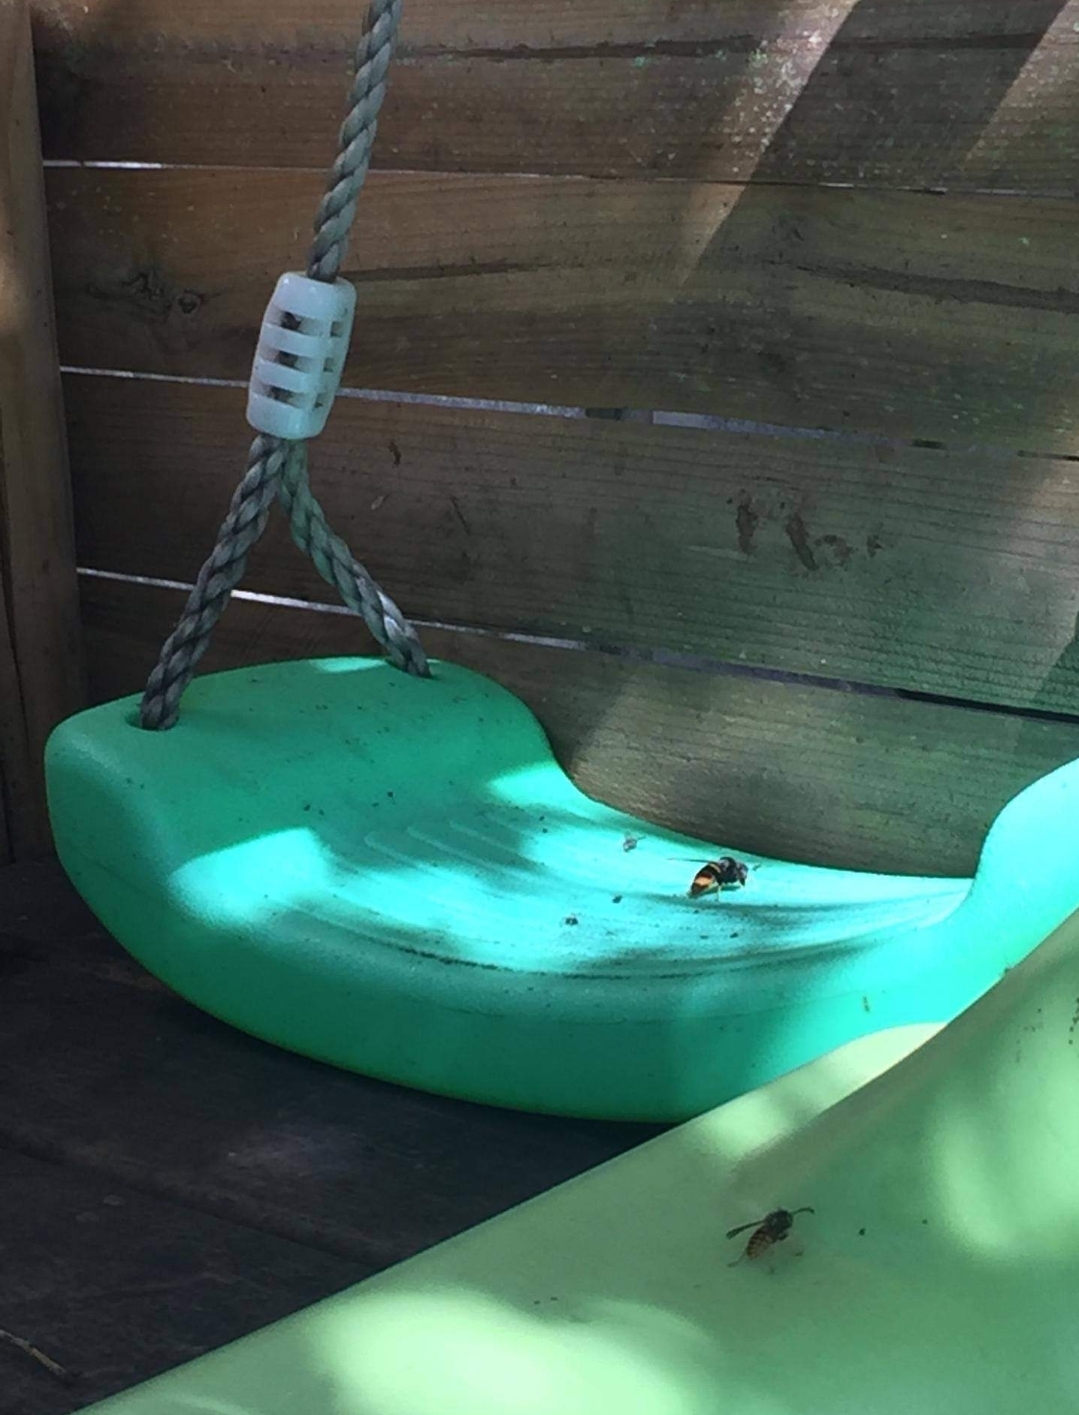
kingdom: Animalia
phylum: Arthropoda
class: Insecta
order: Hymenoptera
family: Vespidae
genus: Vespa
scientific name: Vespa velutina
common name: Asian hornet
